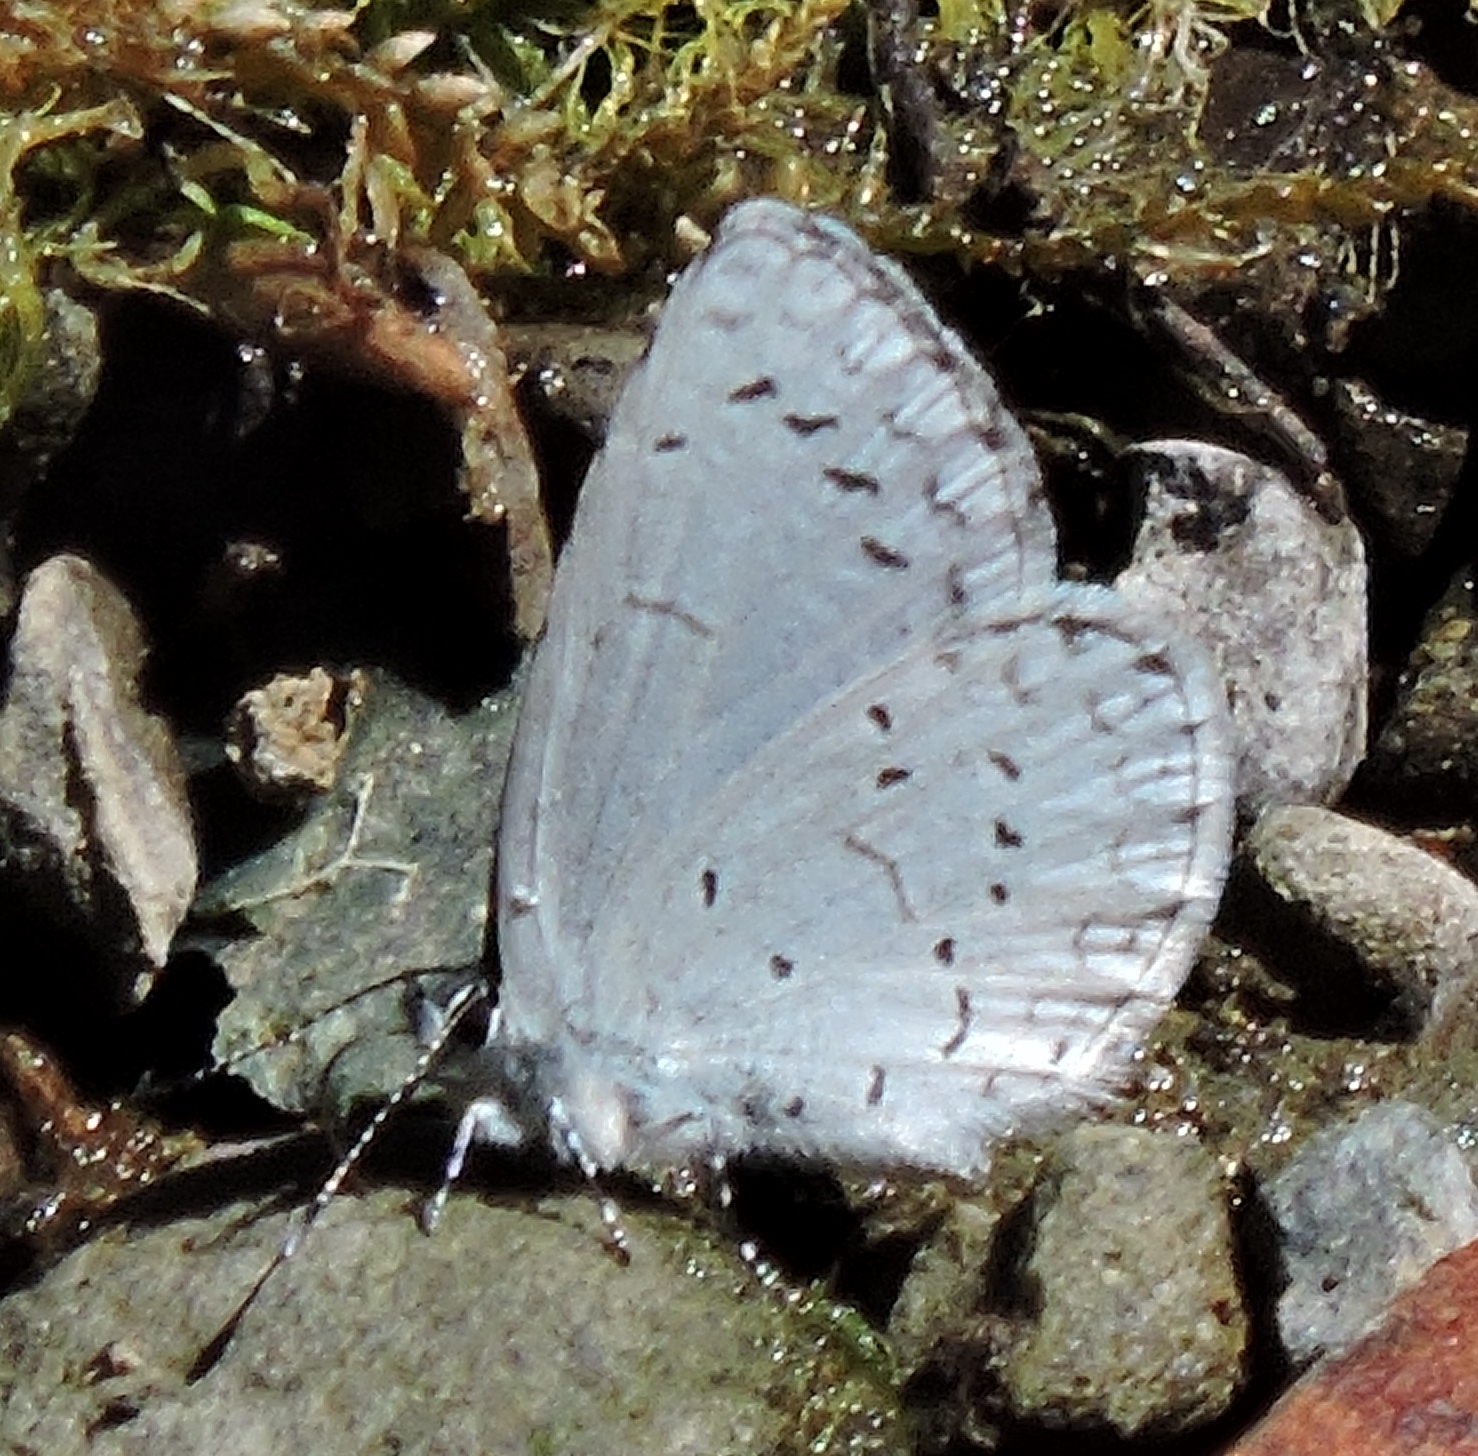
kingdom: Animalia
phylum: Arthropoda
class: Insecta
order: Lepidoptera
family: Lycaenidae
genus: Celastrina
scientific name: Celastrina ladon
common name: Spring azure
